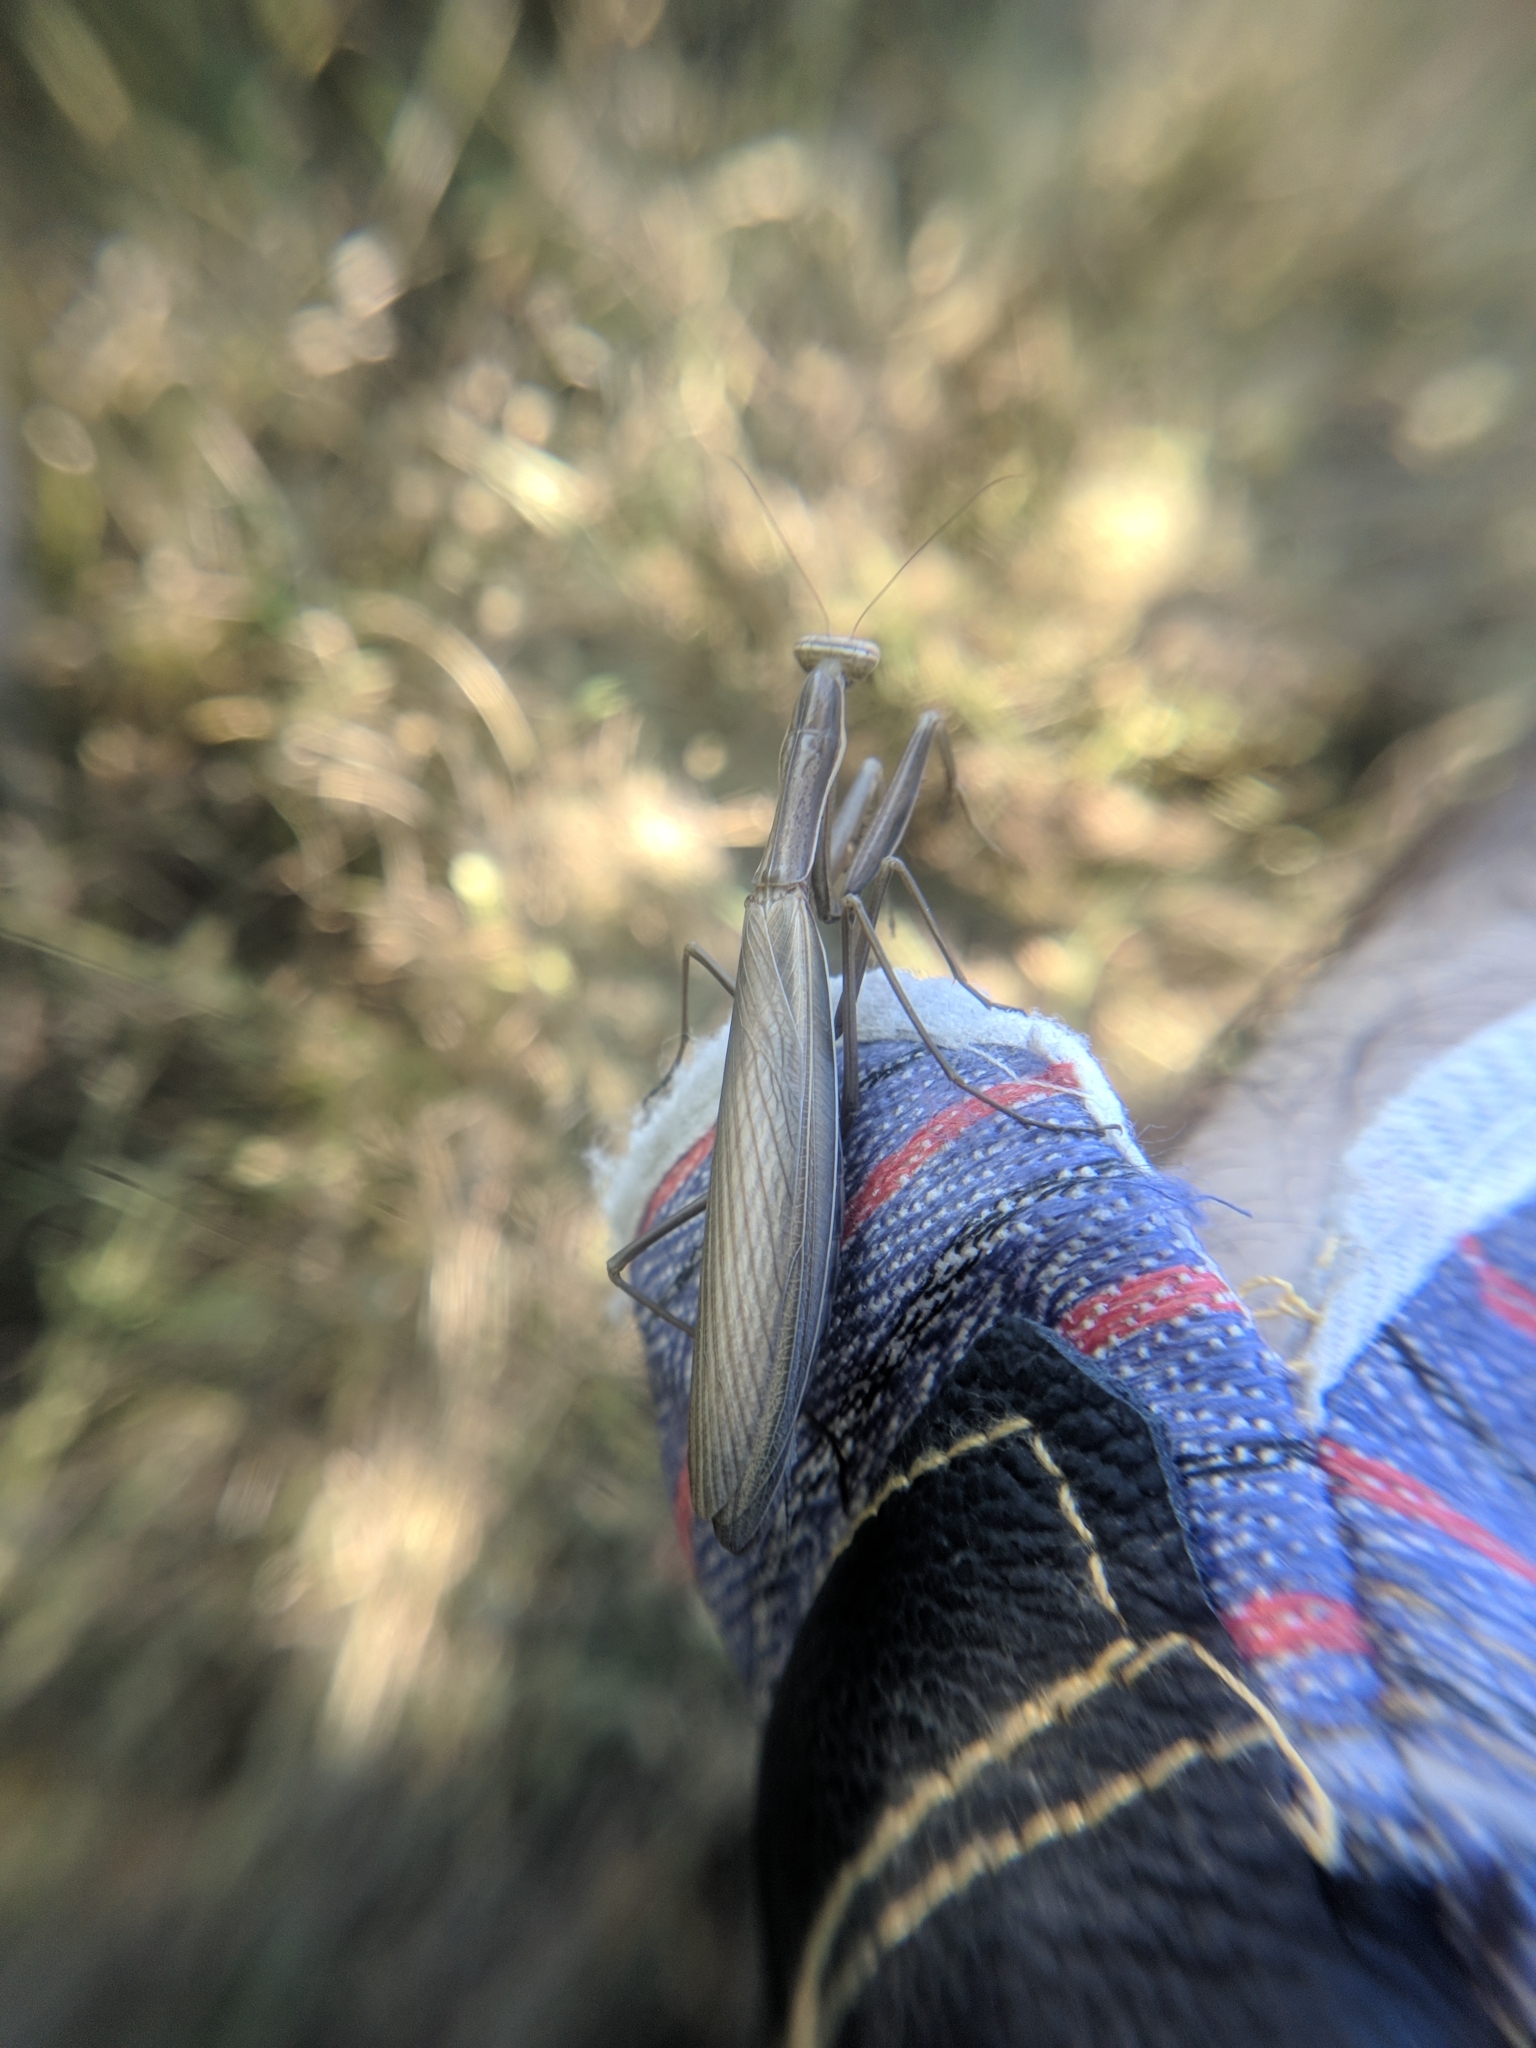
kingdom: Animalia
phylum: Arthropoda
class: Insecta
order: Mantodea
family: Mantidae
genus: Mantis
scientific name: Mantis religiosa
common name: Praying mantis
